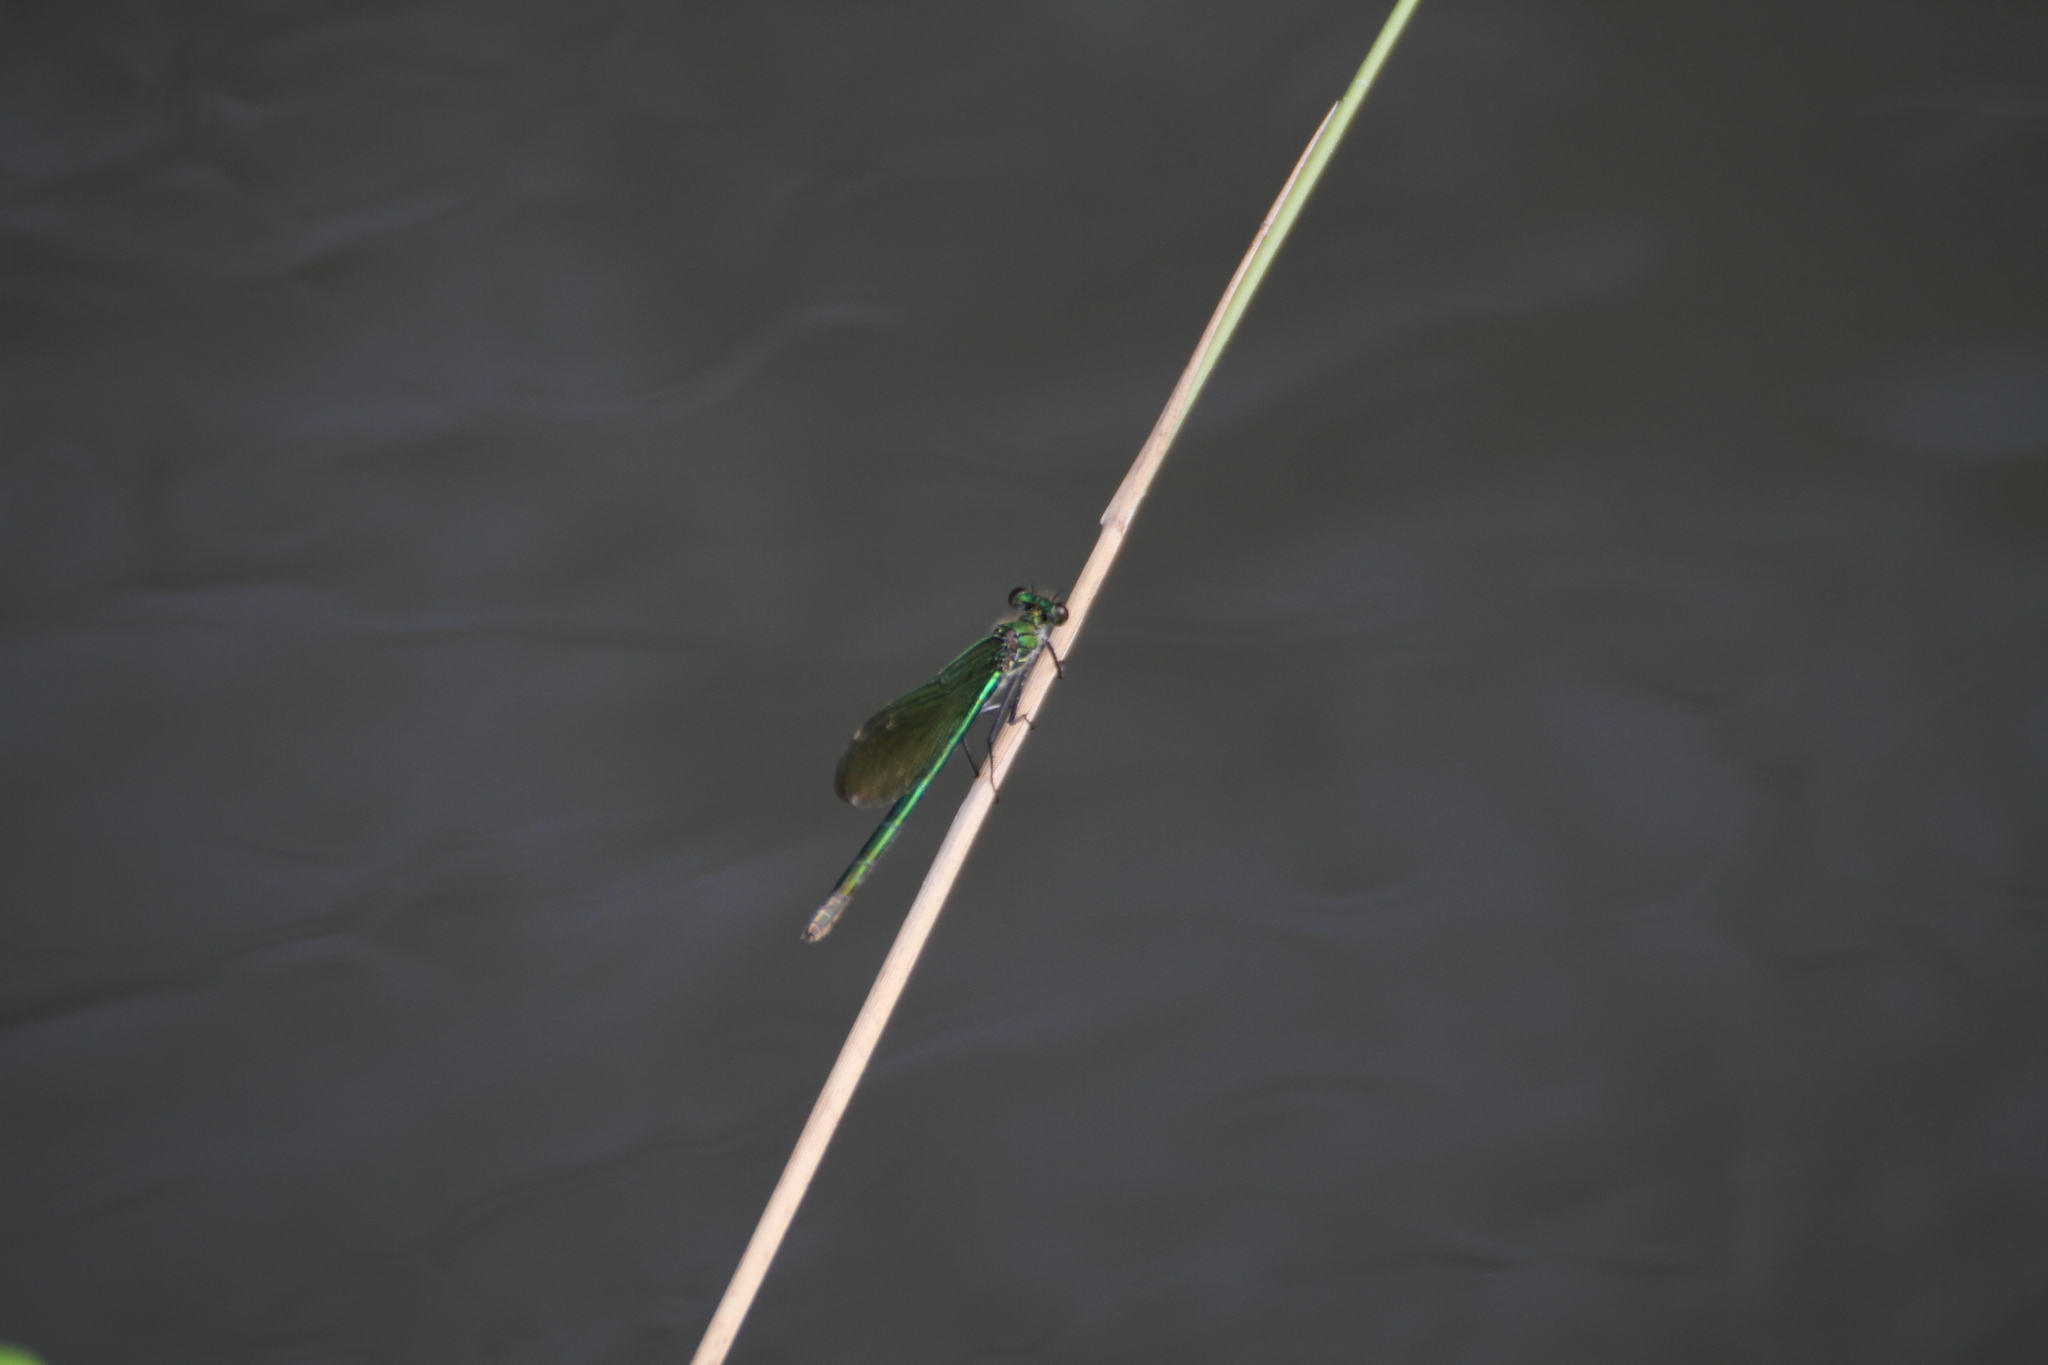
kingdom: Animalia
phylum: Arthropoda
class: Insecta
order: Odonata
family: Calopterygidae
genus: Calopteryx
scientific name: Calopteryx xanthostoma
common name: Western demoiselle
